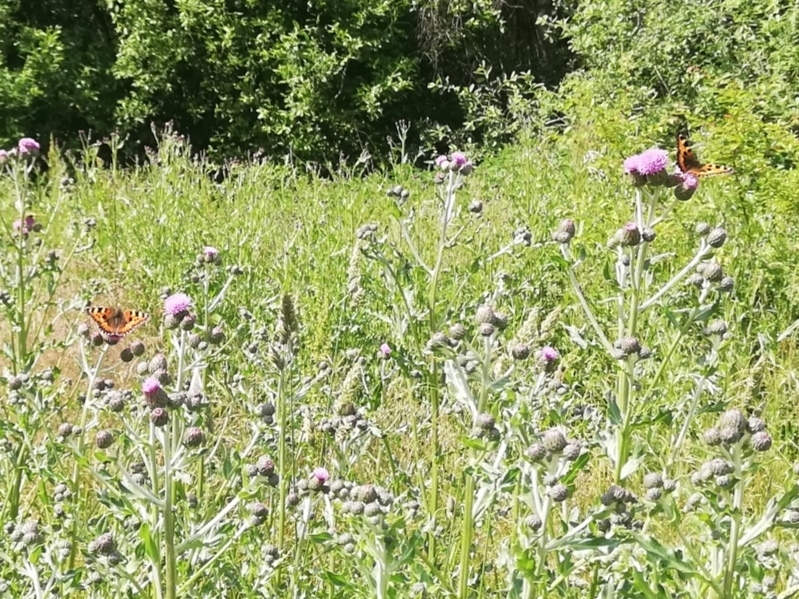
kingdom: Animalia
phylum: Arthropoda
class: Insecta
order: Lepidoptera
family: Nymphalidae
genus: Aglais
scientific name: Aglais urticae
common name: Small tortoiseshell
